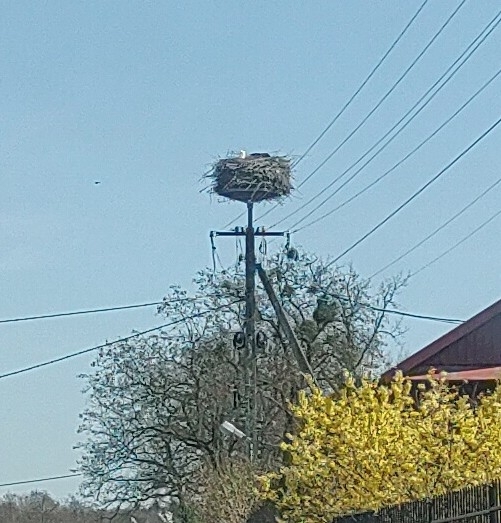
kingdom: Animalia
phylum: Chordata
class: Aves
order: Ciconiiformes
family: Ciconiidae
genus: Ciconia
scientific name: Ciconia ciconia
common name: White stork
